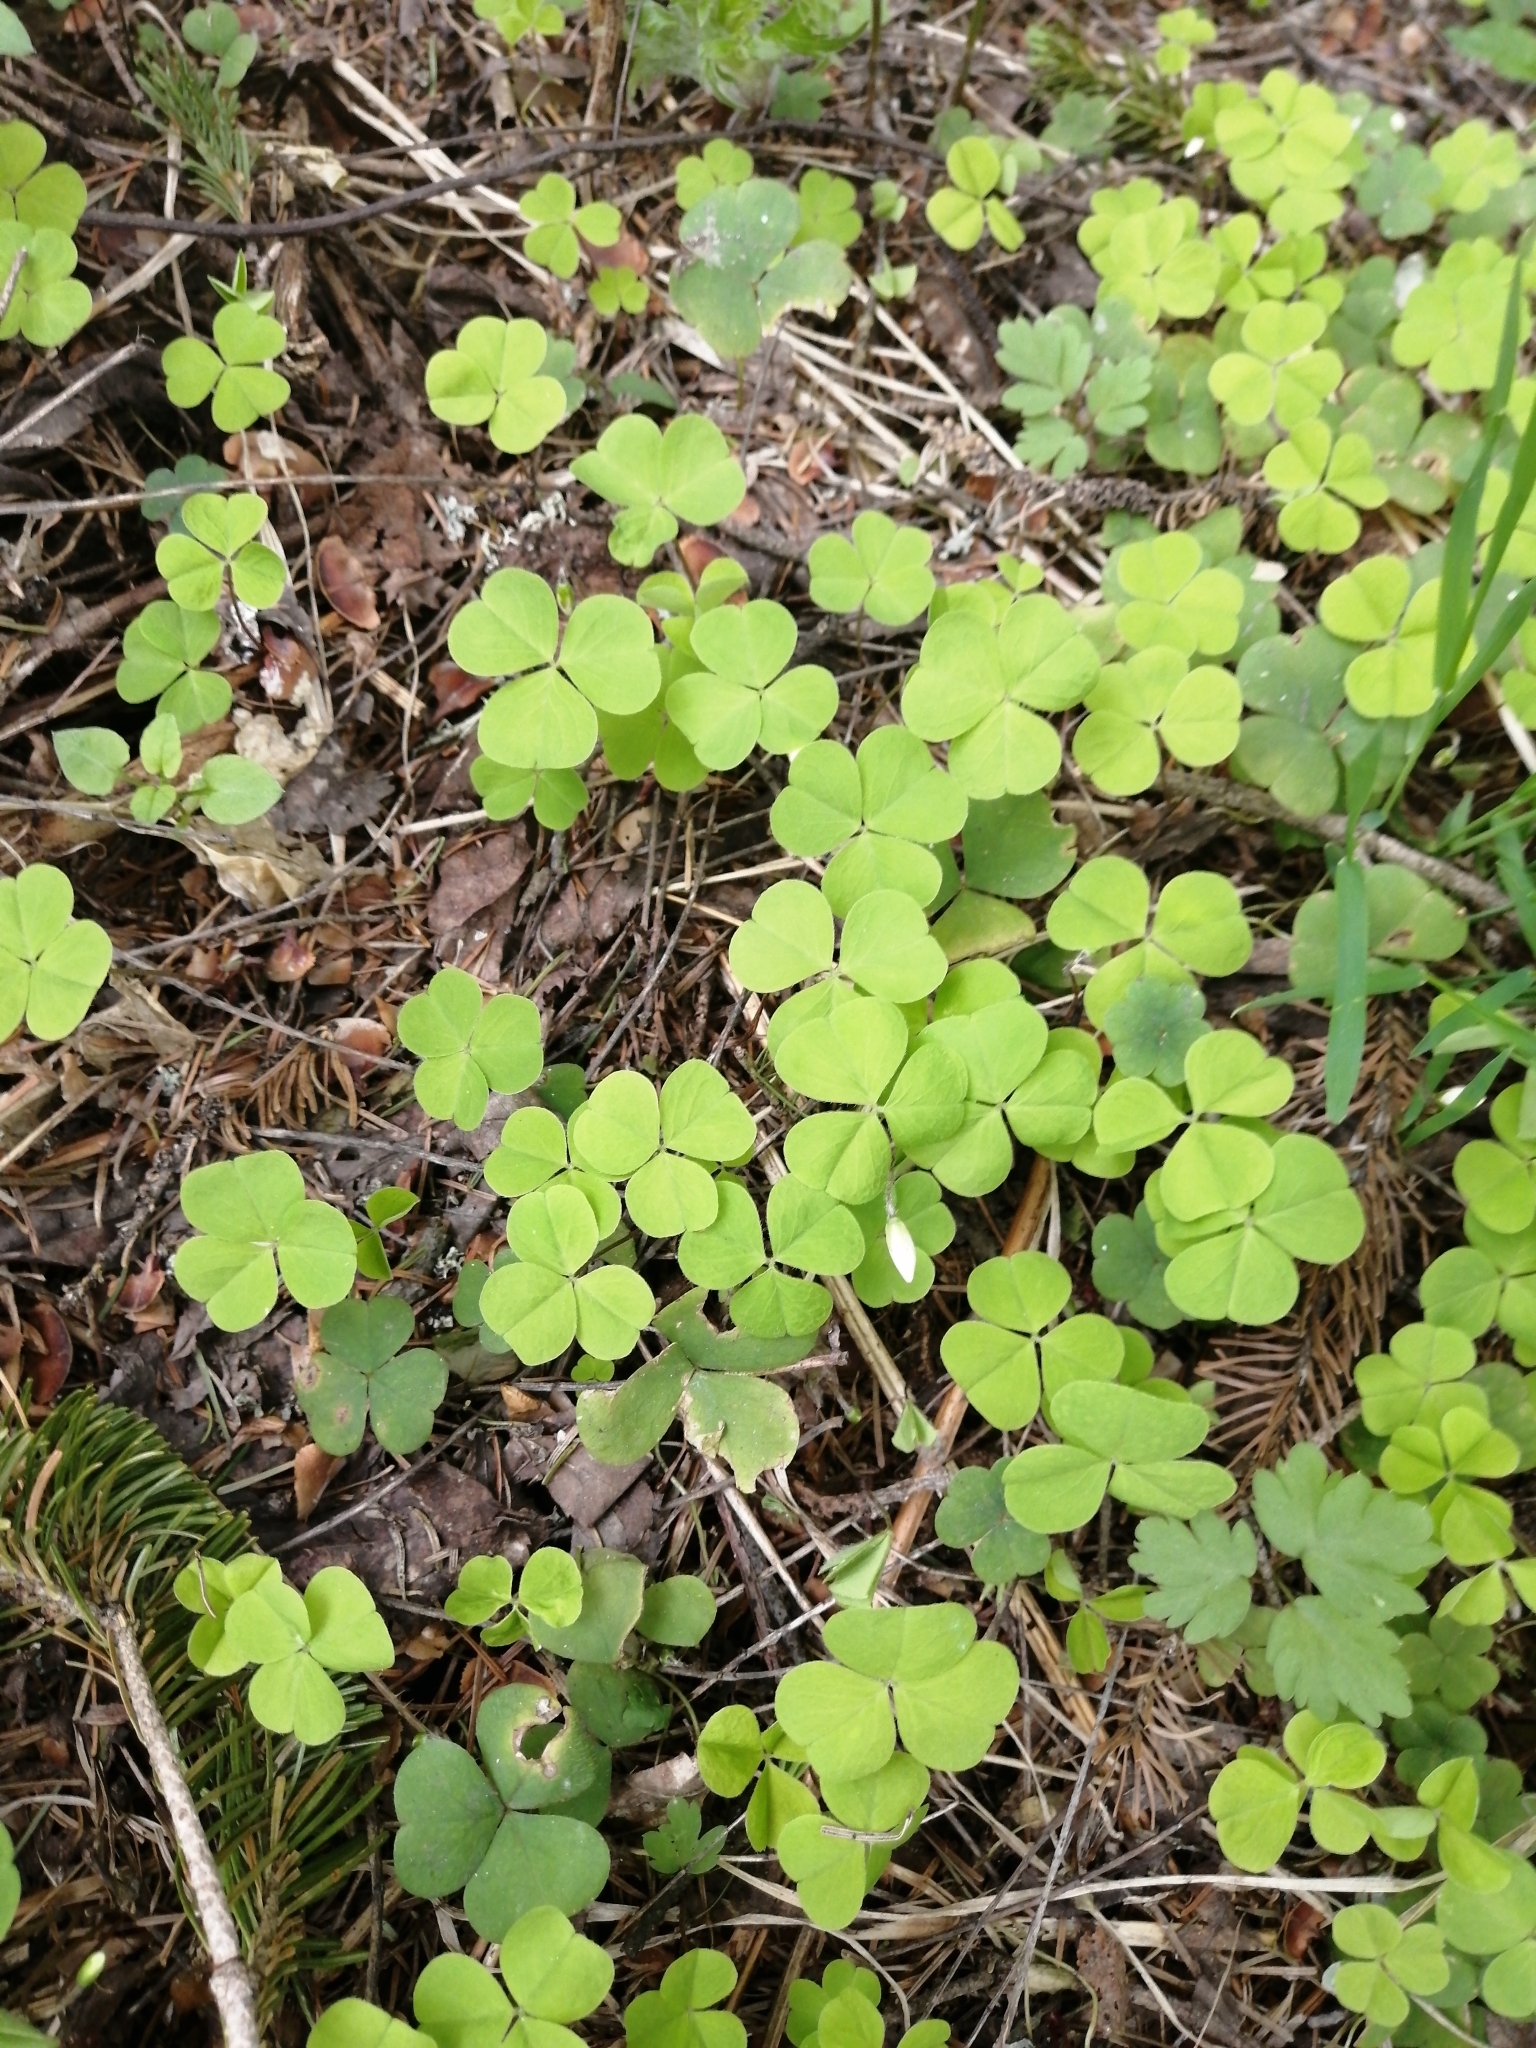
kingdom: Plantae
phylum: Tracheophyta
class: Magnoliopsida
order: Oxalidales
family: Oxalidaceae
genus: Oxalis
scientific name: Oxalis acetosella
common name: Wood-sorrel
